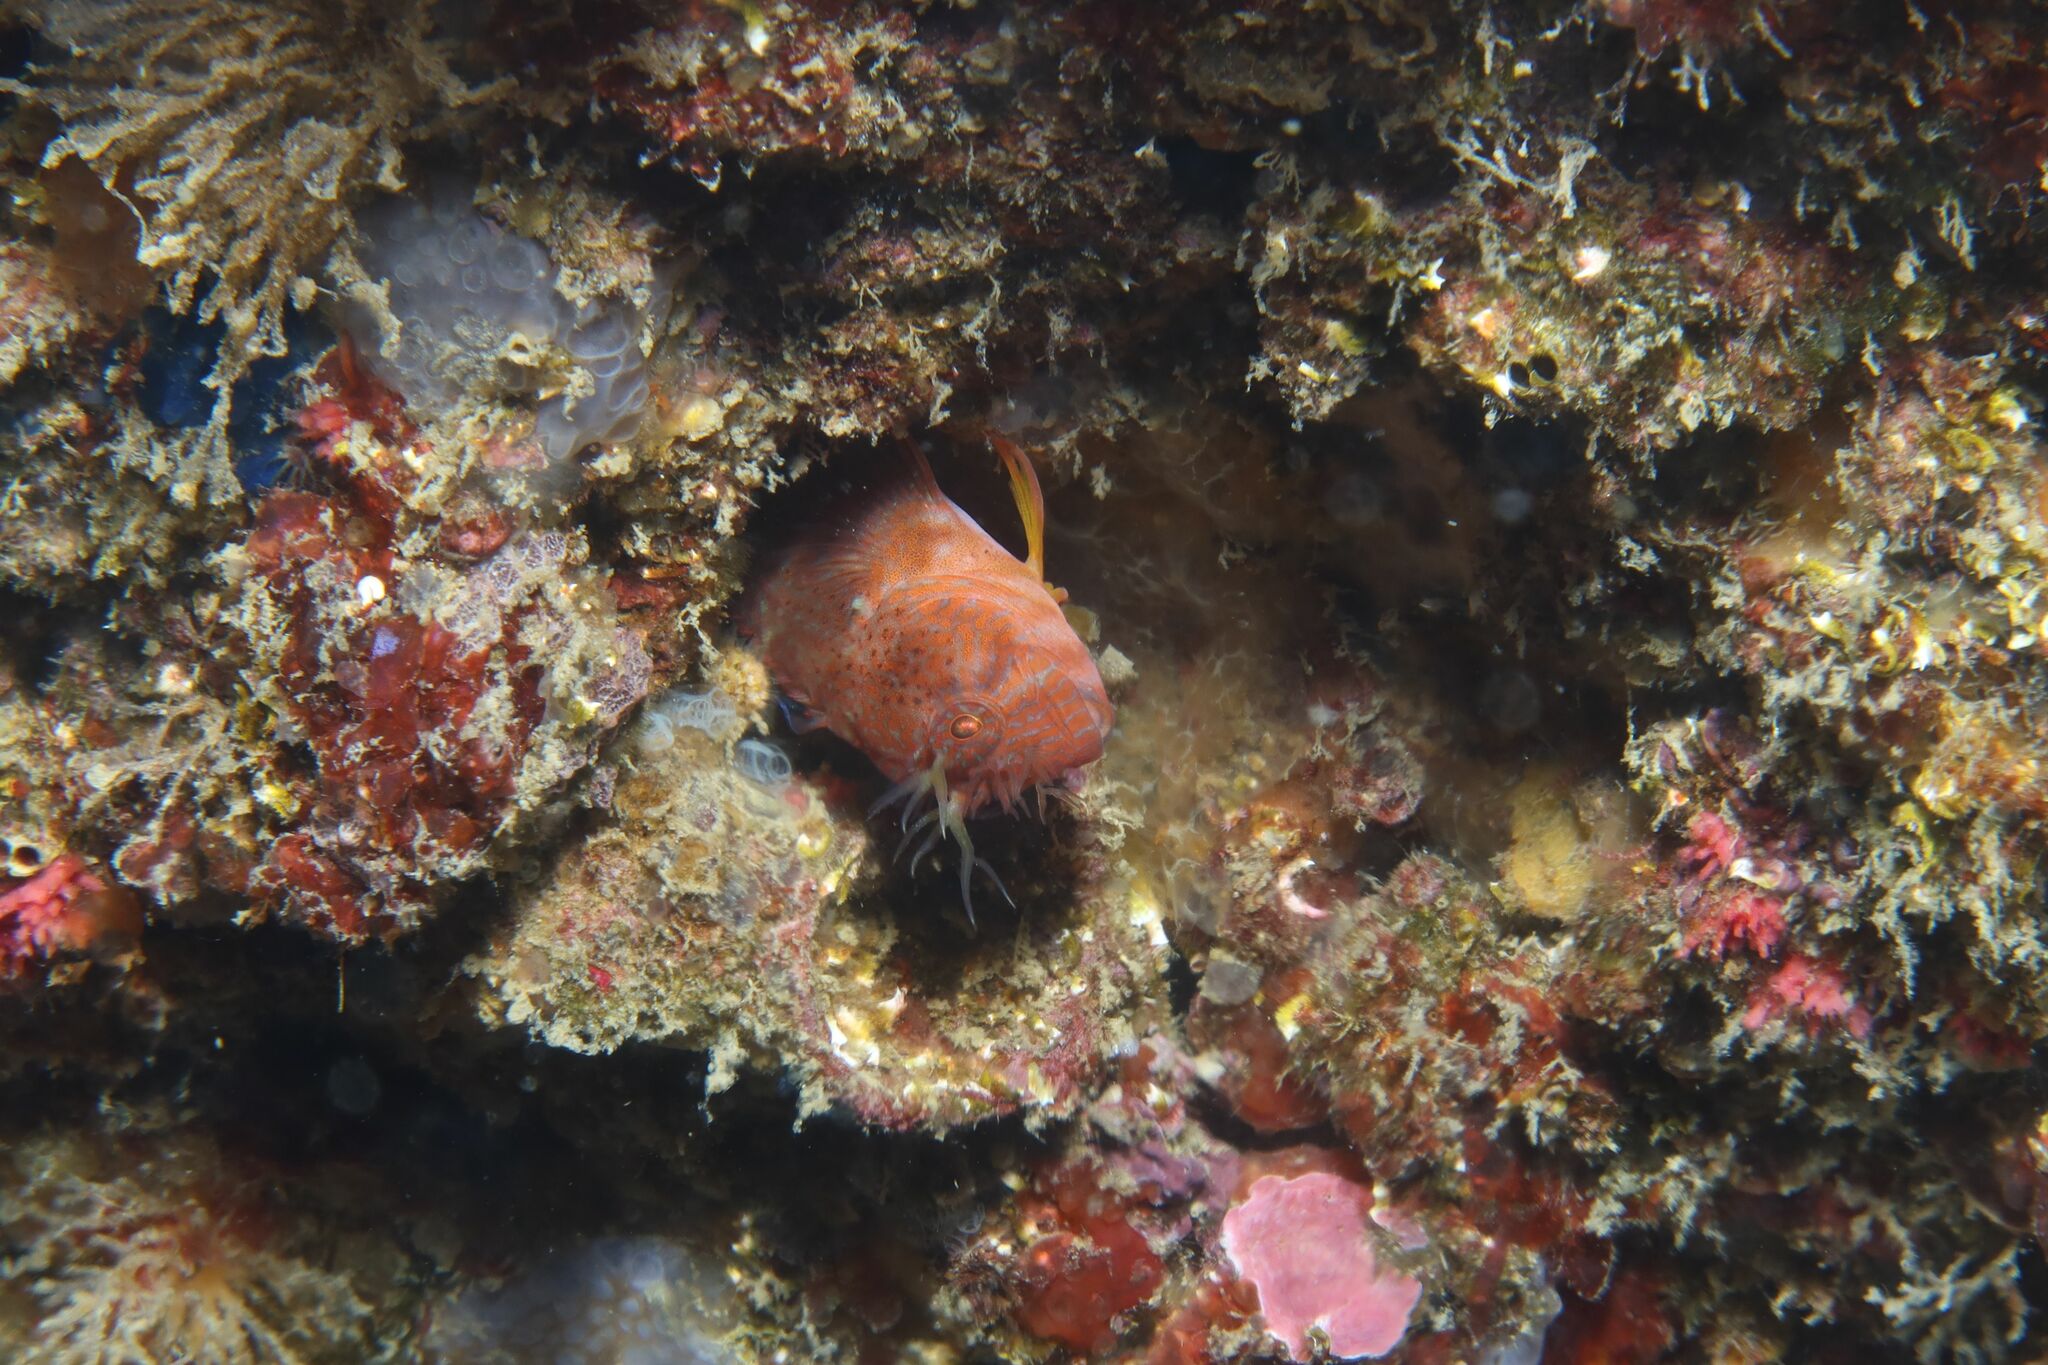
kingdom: Animalia
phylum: Chordata
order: Perciformes
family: Blenniidae
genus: Parablennius
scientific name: Parablennius zvonimiri
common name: Red blenny
